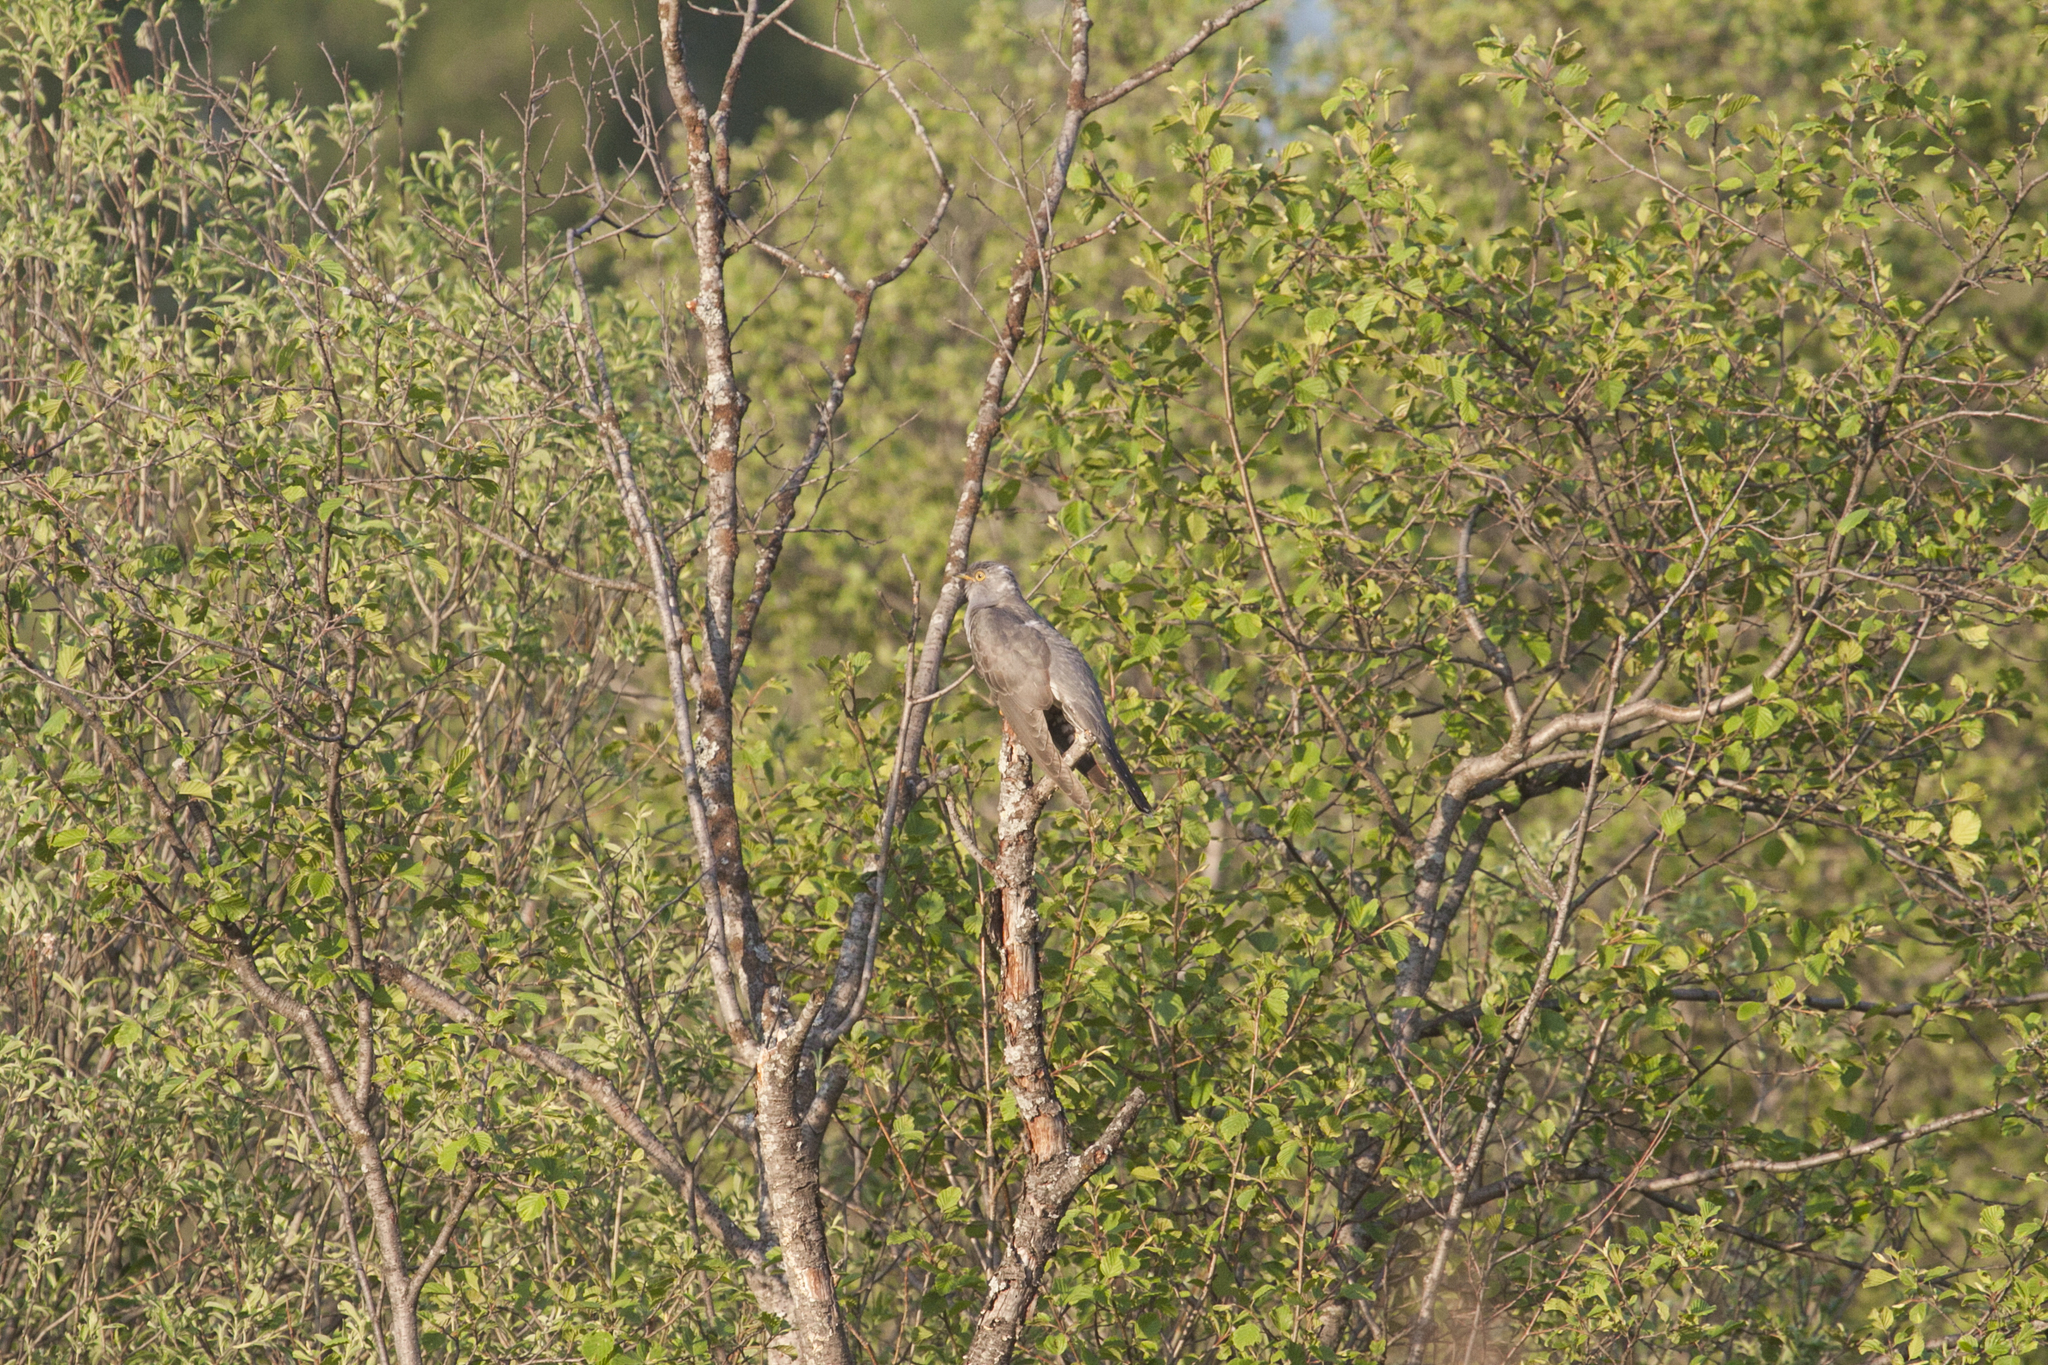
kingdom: Animalia
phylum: Chordata
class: Aves
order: Cuculiformes
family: Cuculidae
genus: Cuculus
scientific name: Cuculus canorus
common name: Common cuckoo
